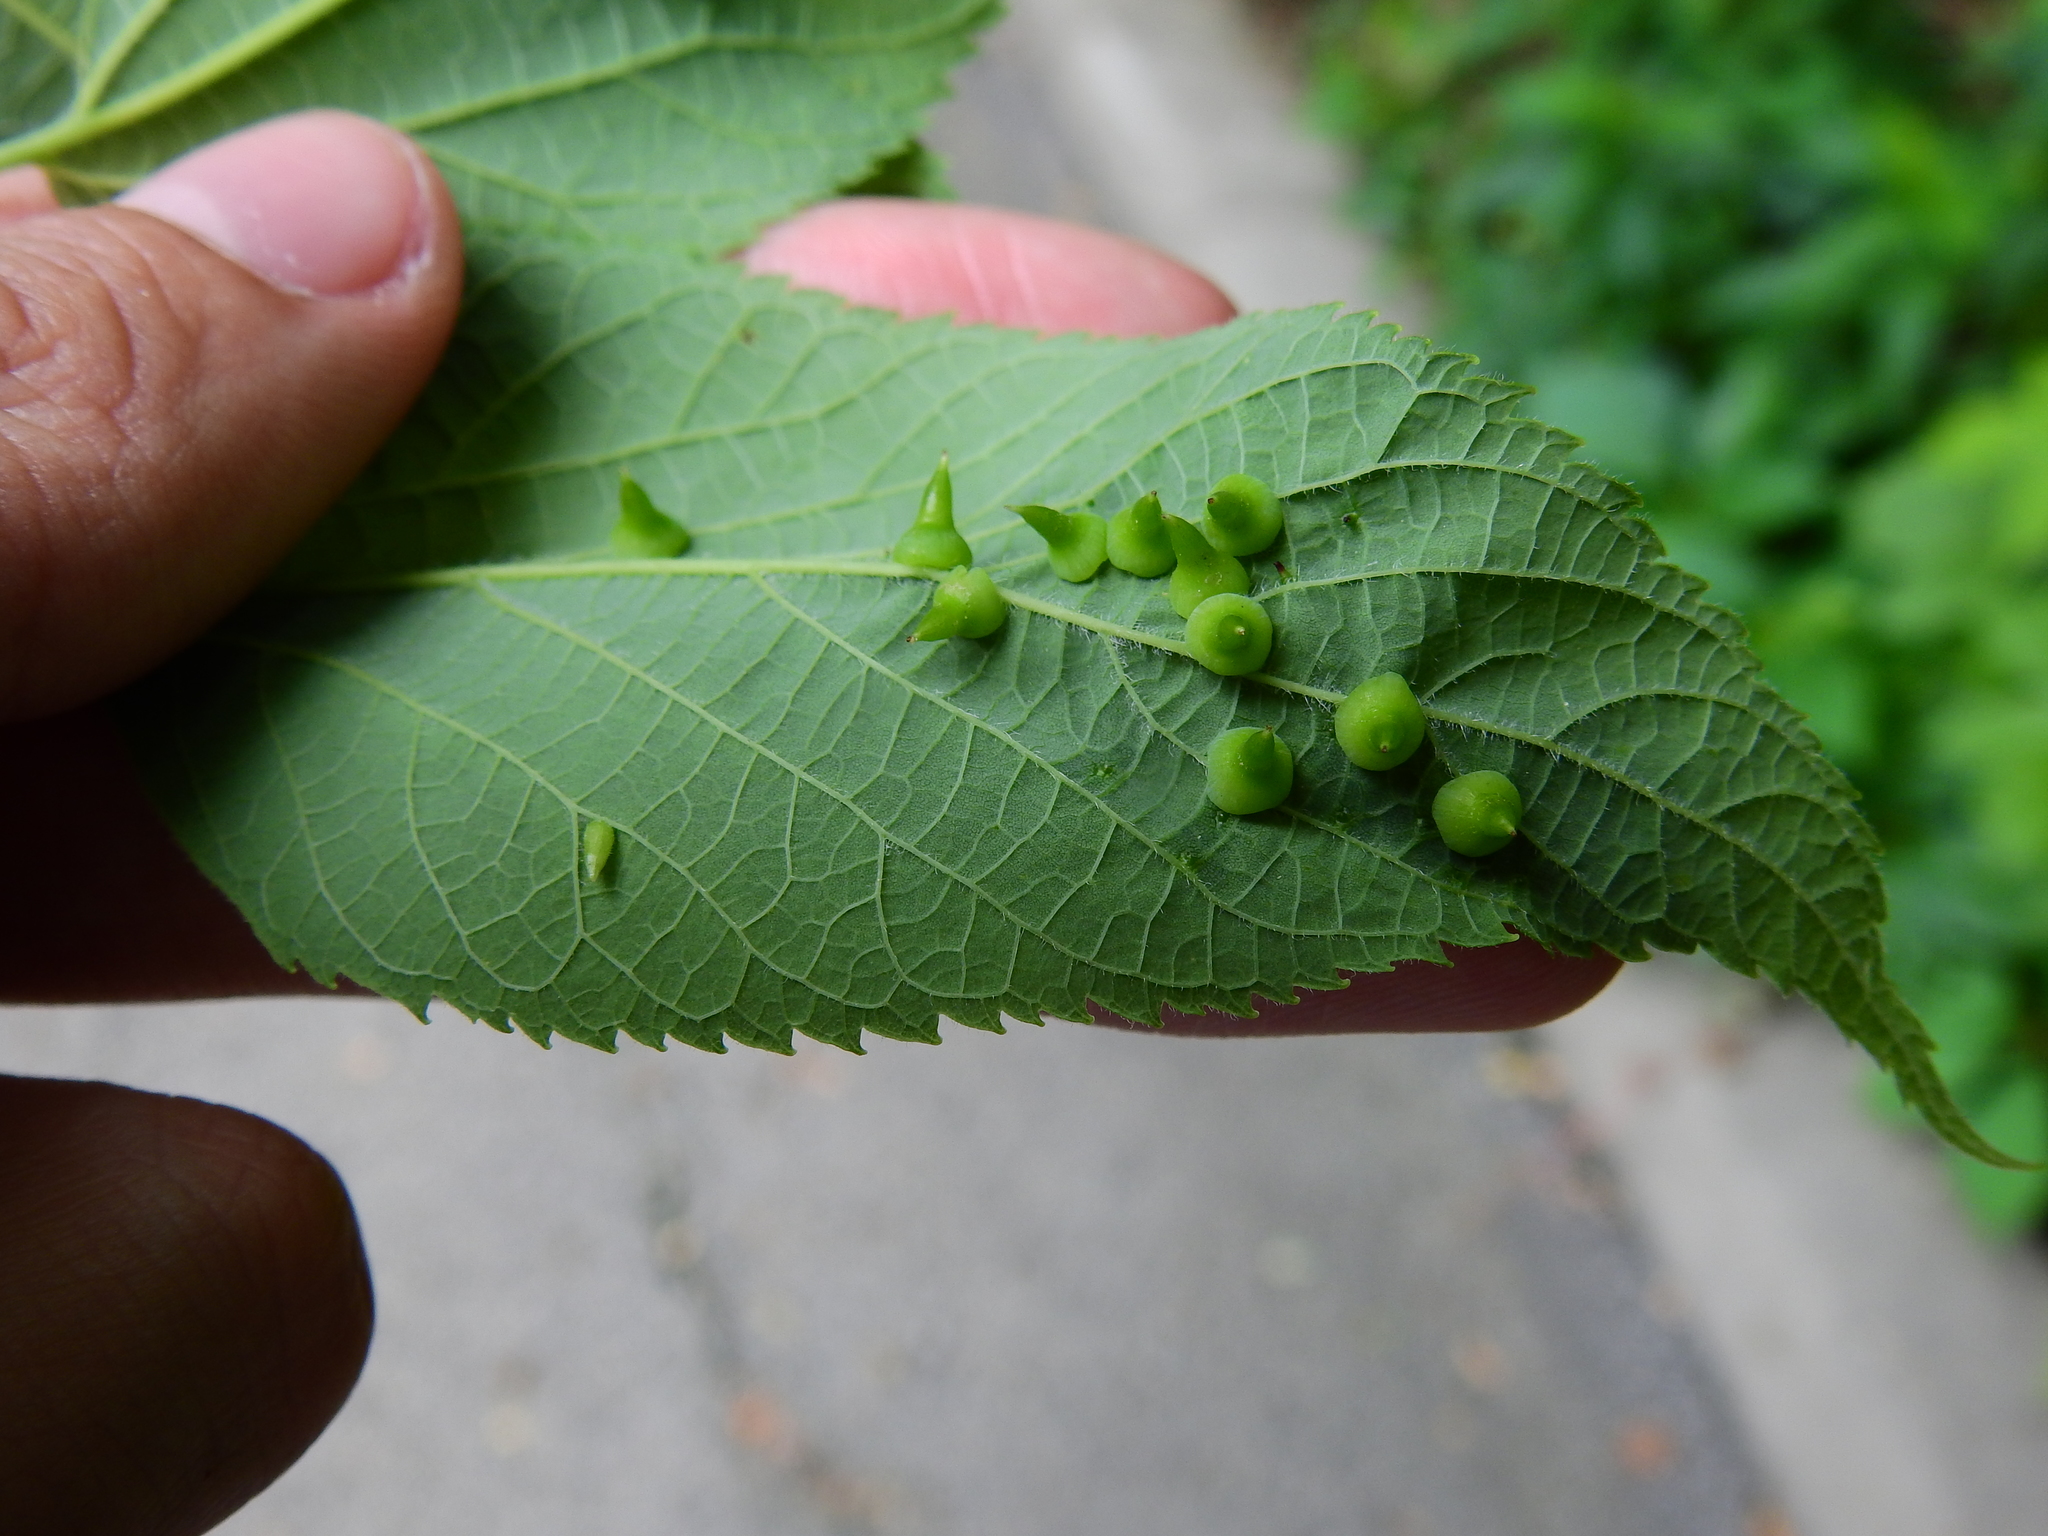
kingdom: Animalia
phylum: Arthropoda
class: Insecta
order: Diptera
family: Cecidomyiidae
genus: Celticecis
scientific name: Celticecis spiniformis
